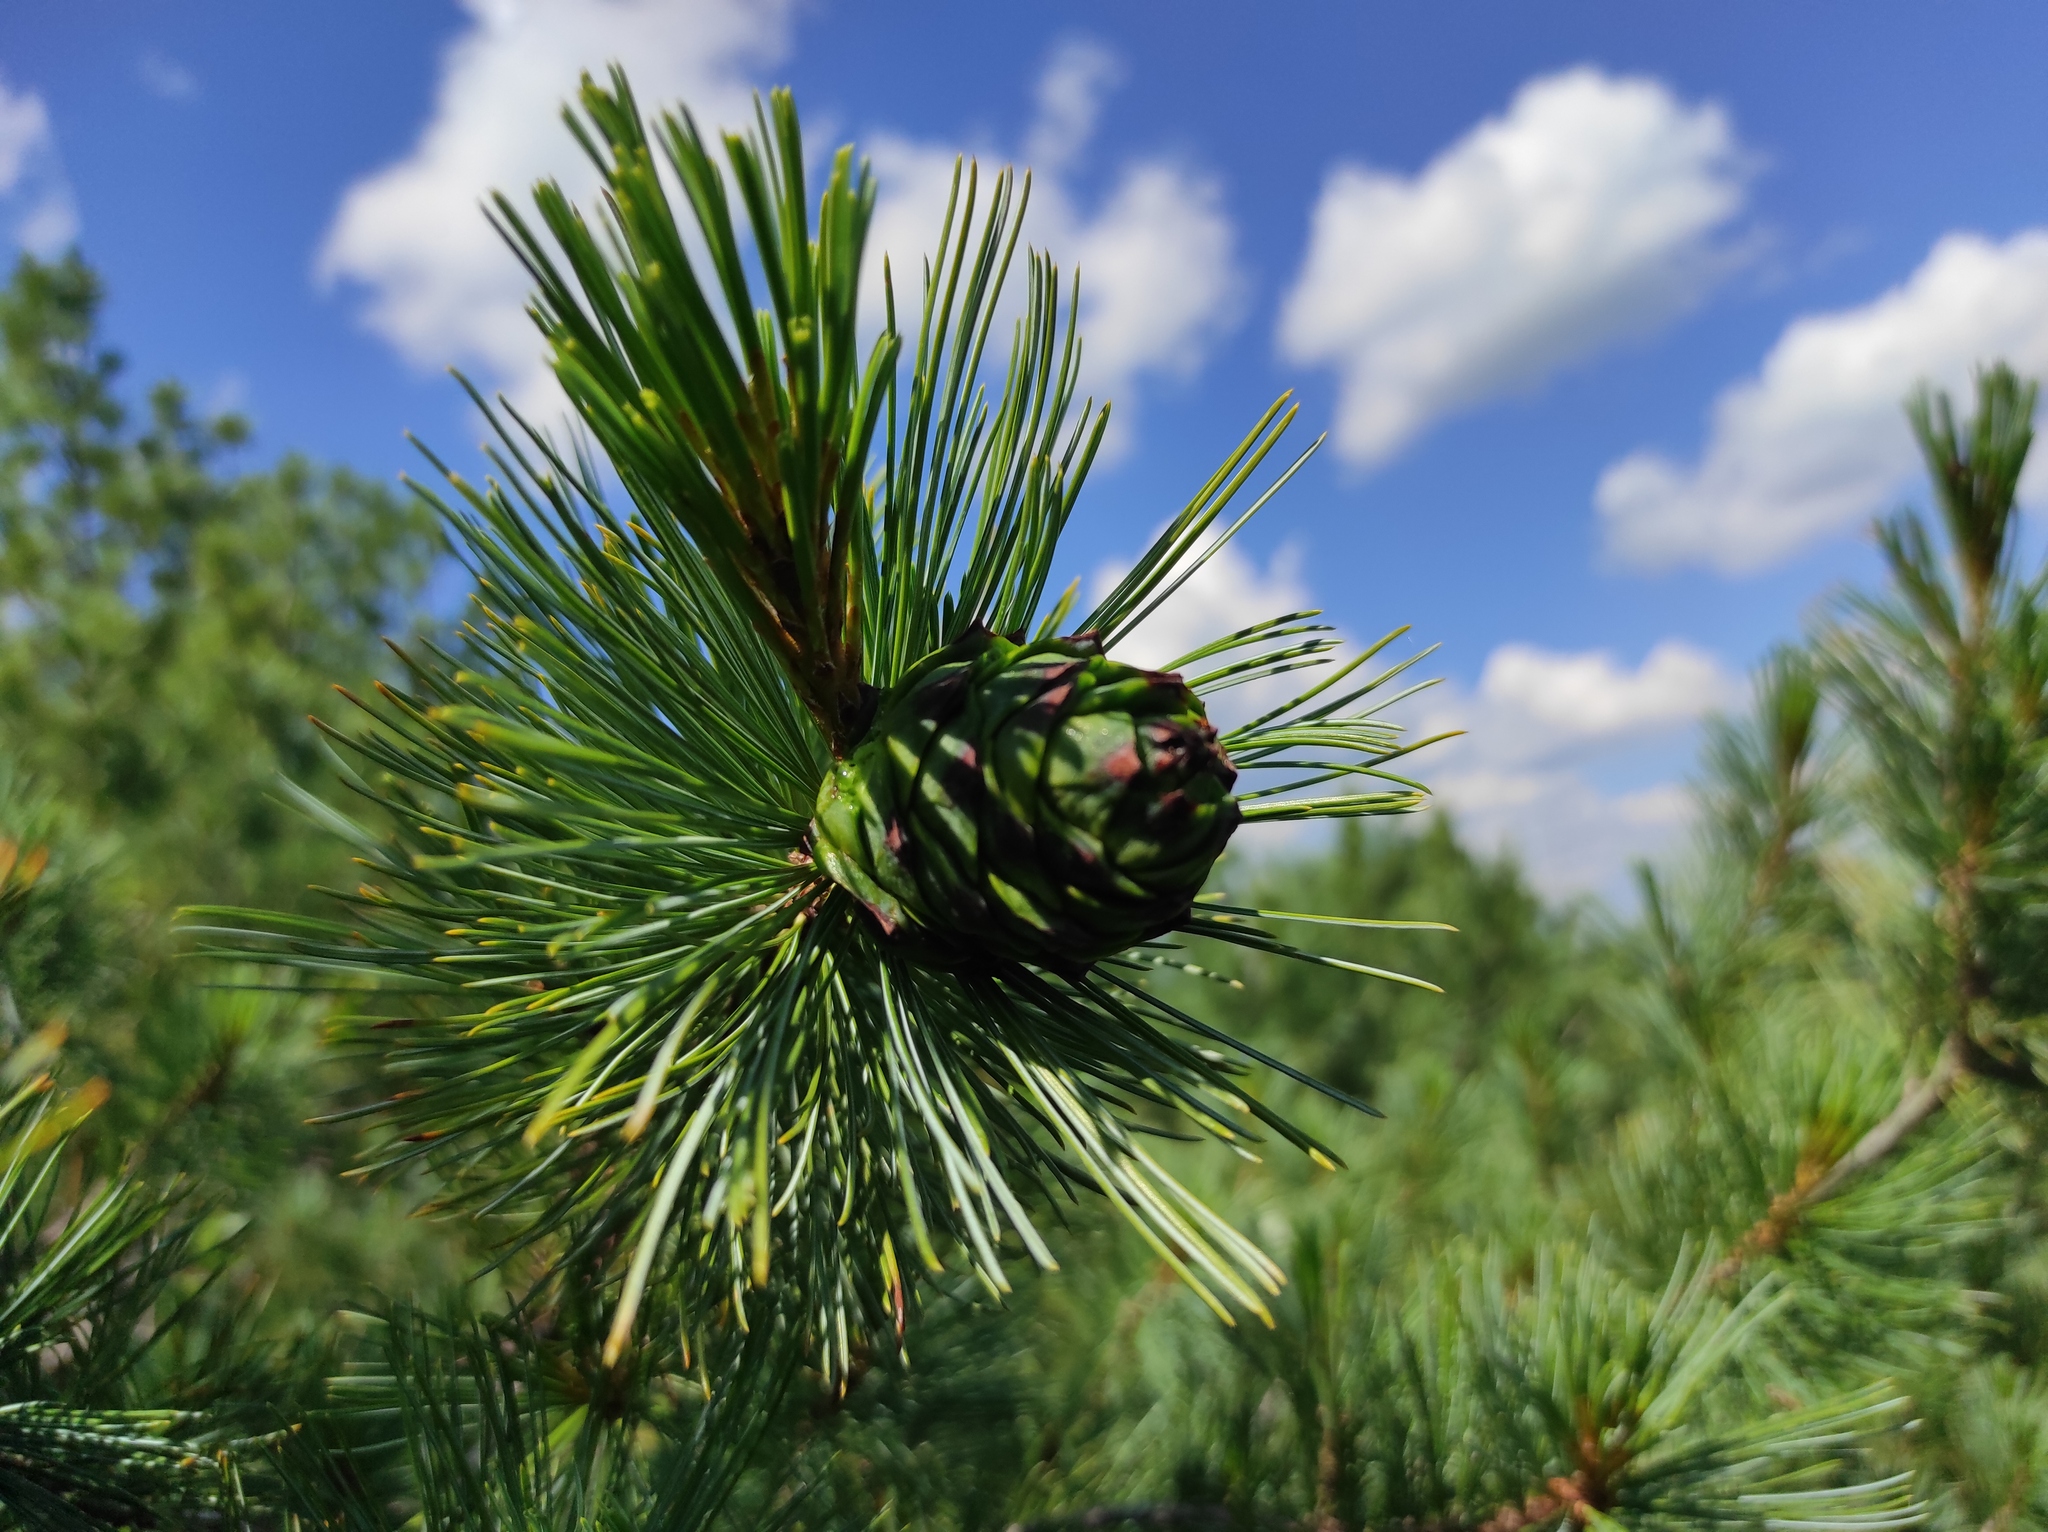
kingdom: Plantae
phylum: Tracheophyta
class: Pinopsida
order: Pinales
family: Pinaceae
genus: Pinus
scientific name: Pinus pumila
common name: Dwarf siberian pine
